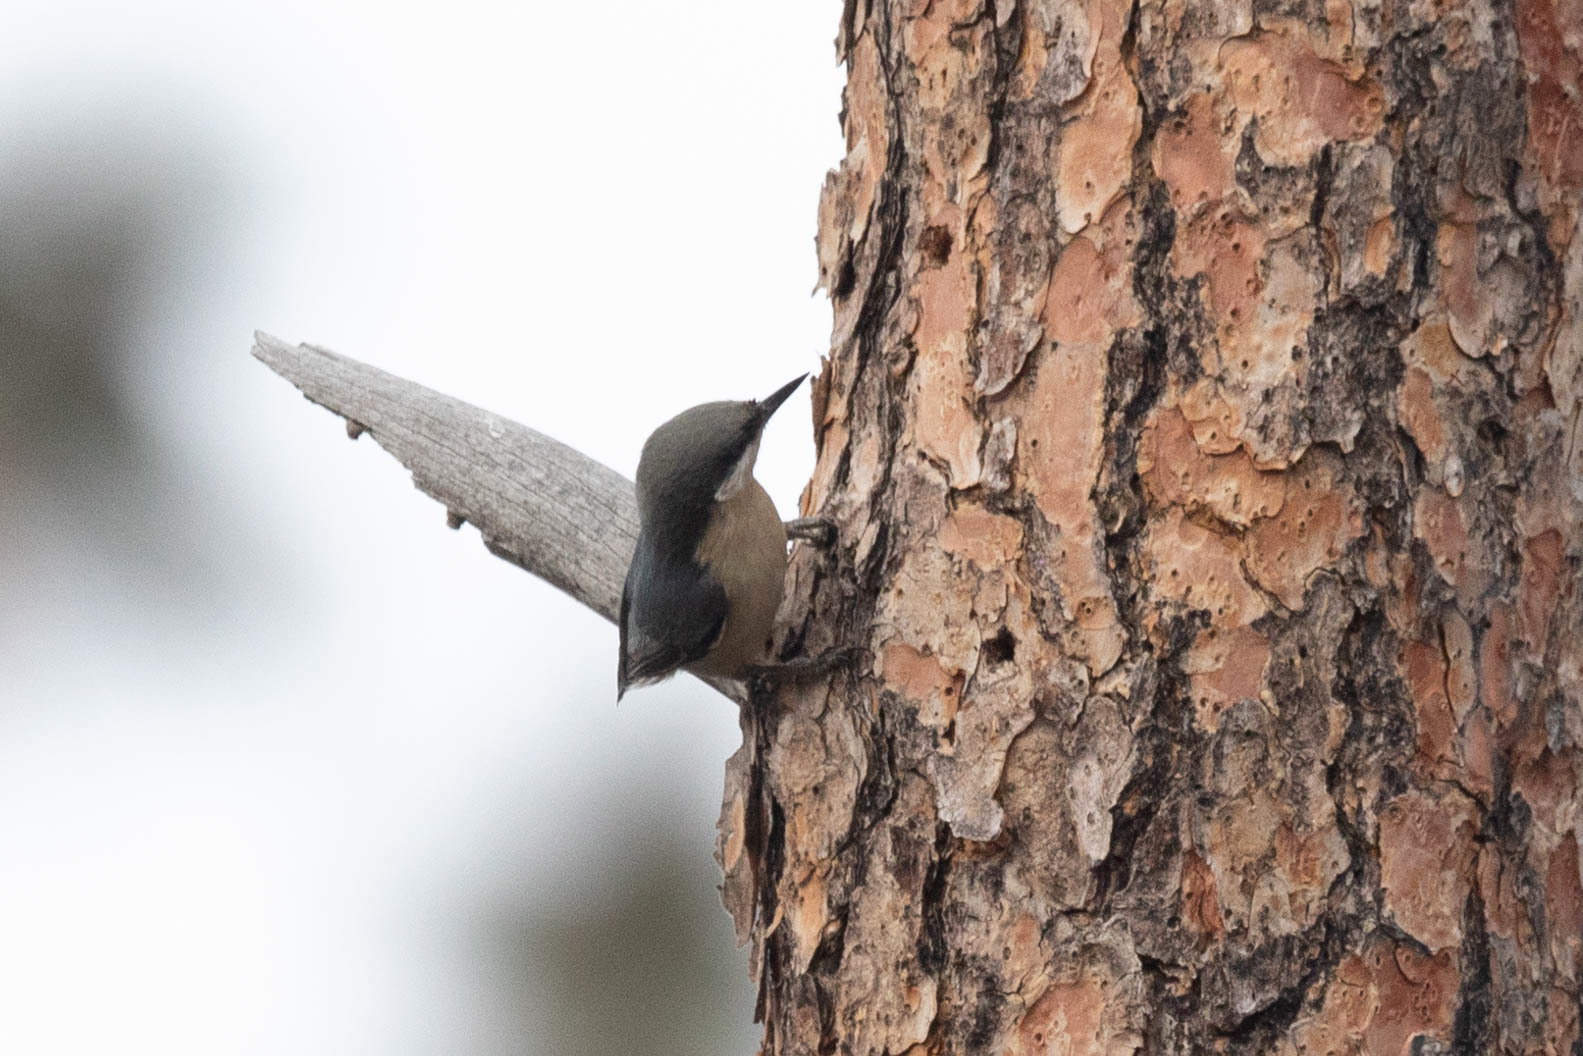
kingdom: Animalia
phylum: Chordata
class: Aves
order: Passeriformes
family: Sittidae
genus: Sitta
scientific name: Sitta pygmaea
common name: Pygmy nuthatch
